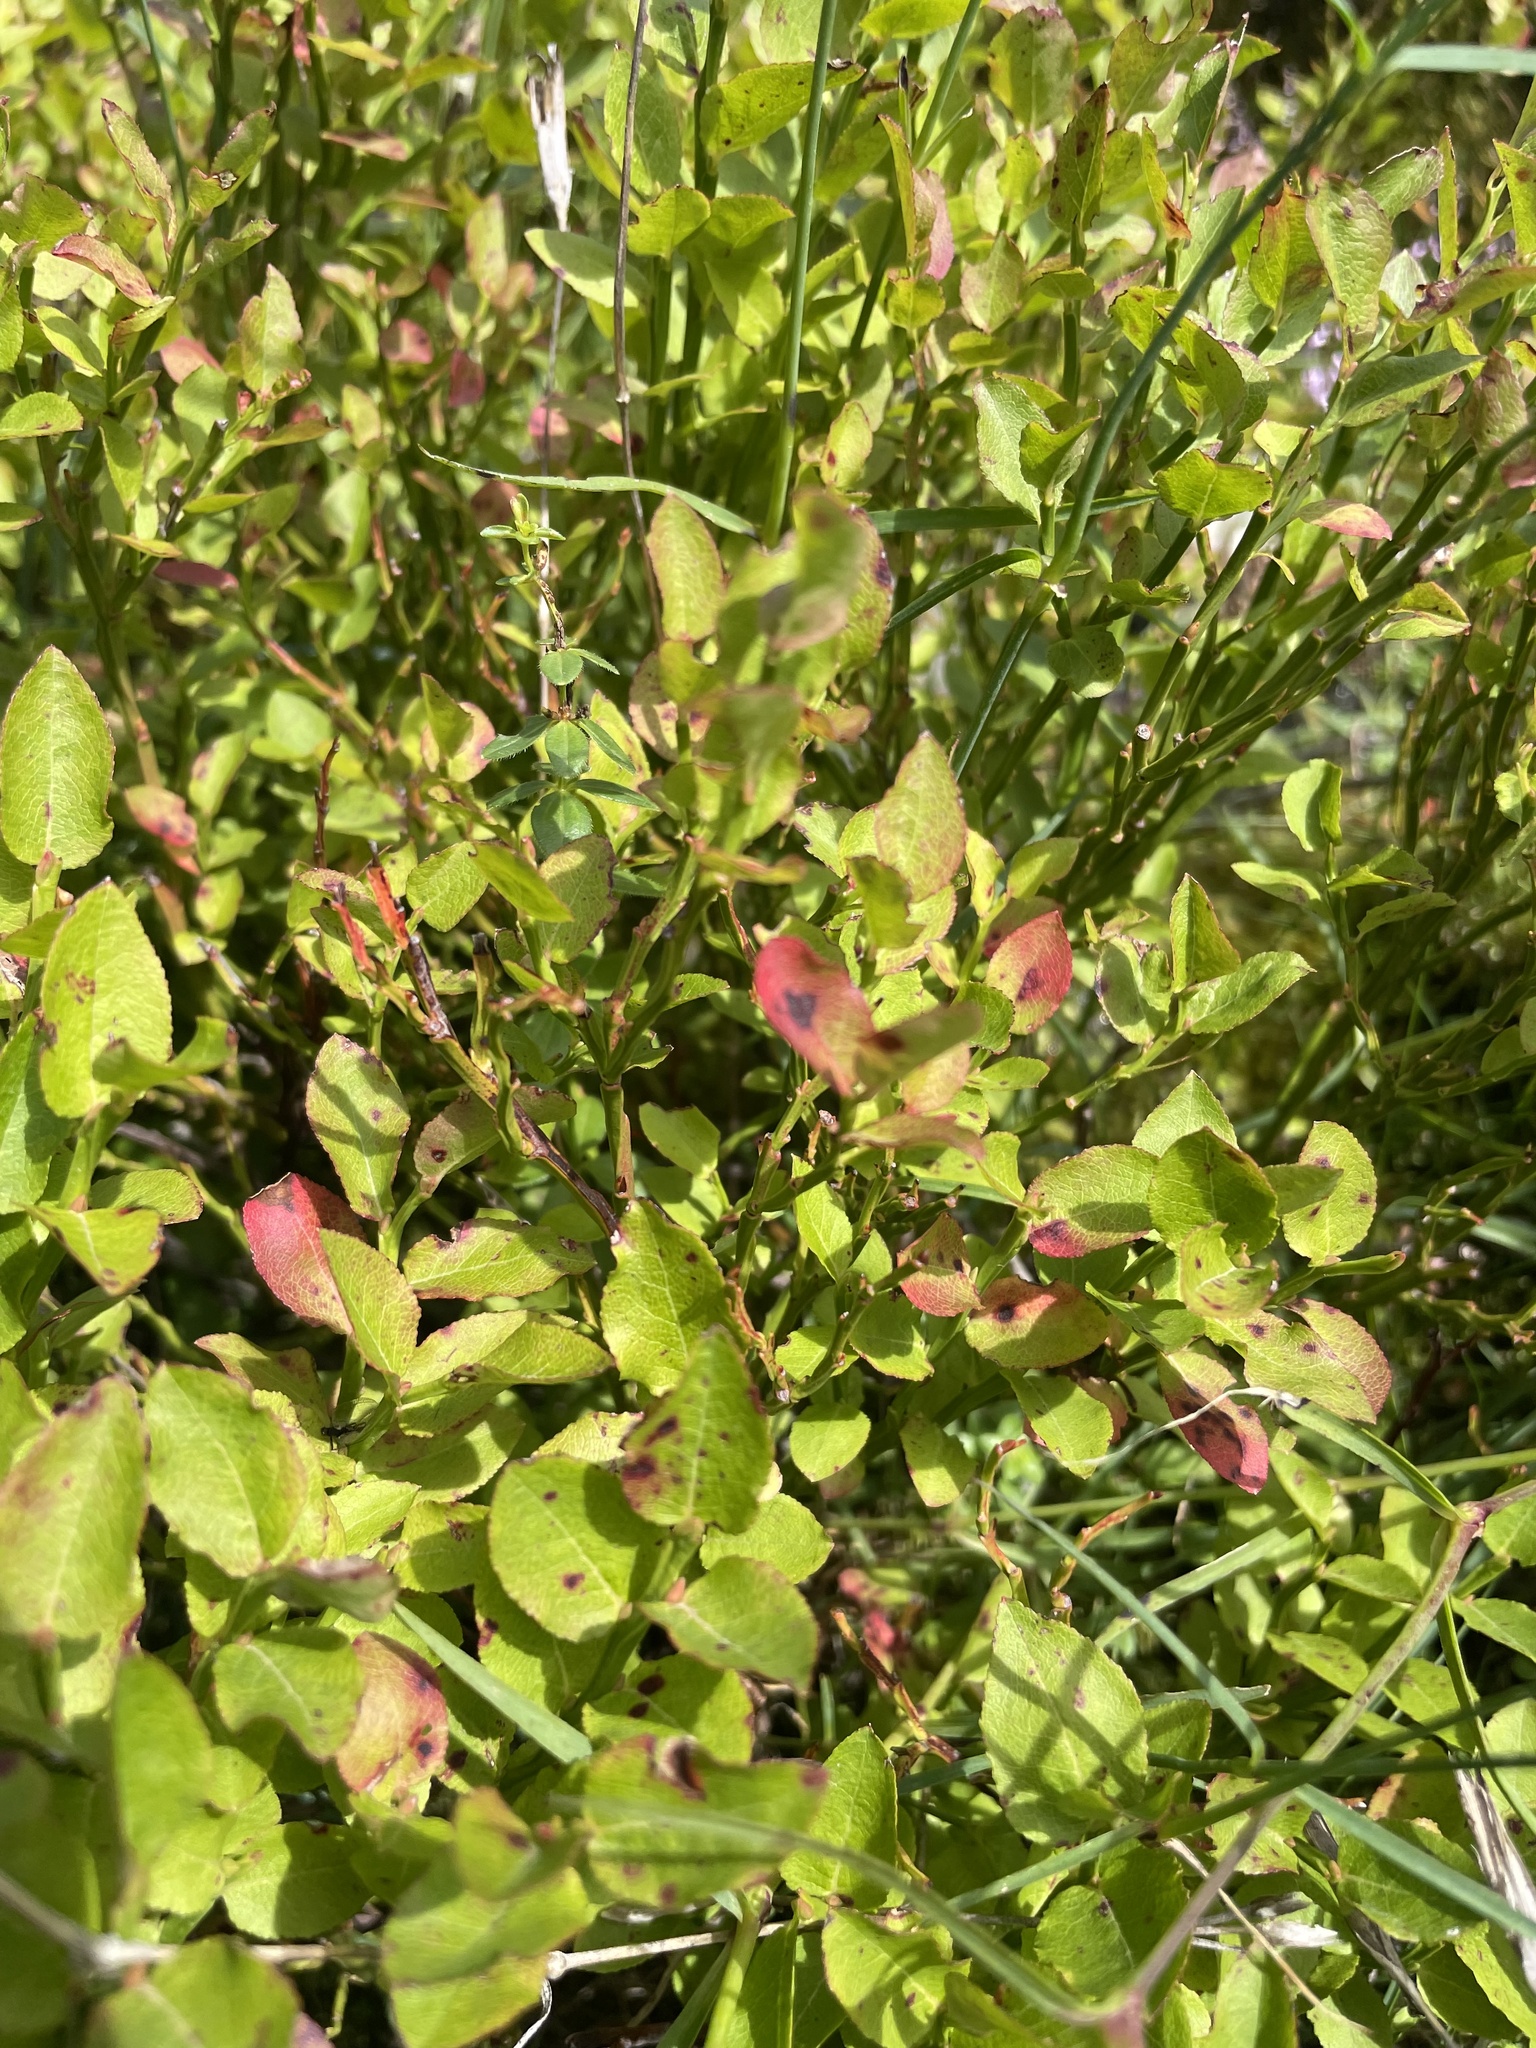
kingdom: Plantae
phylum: Tracheophyta
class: Magnoliopsida
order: Ericales
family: Ericaceae
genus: Vaccinium
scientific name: Vaccinium myrtillus
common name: Bilberry
